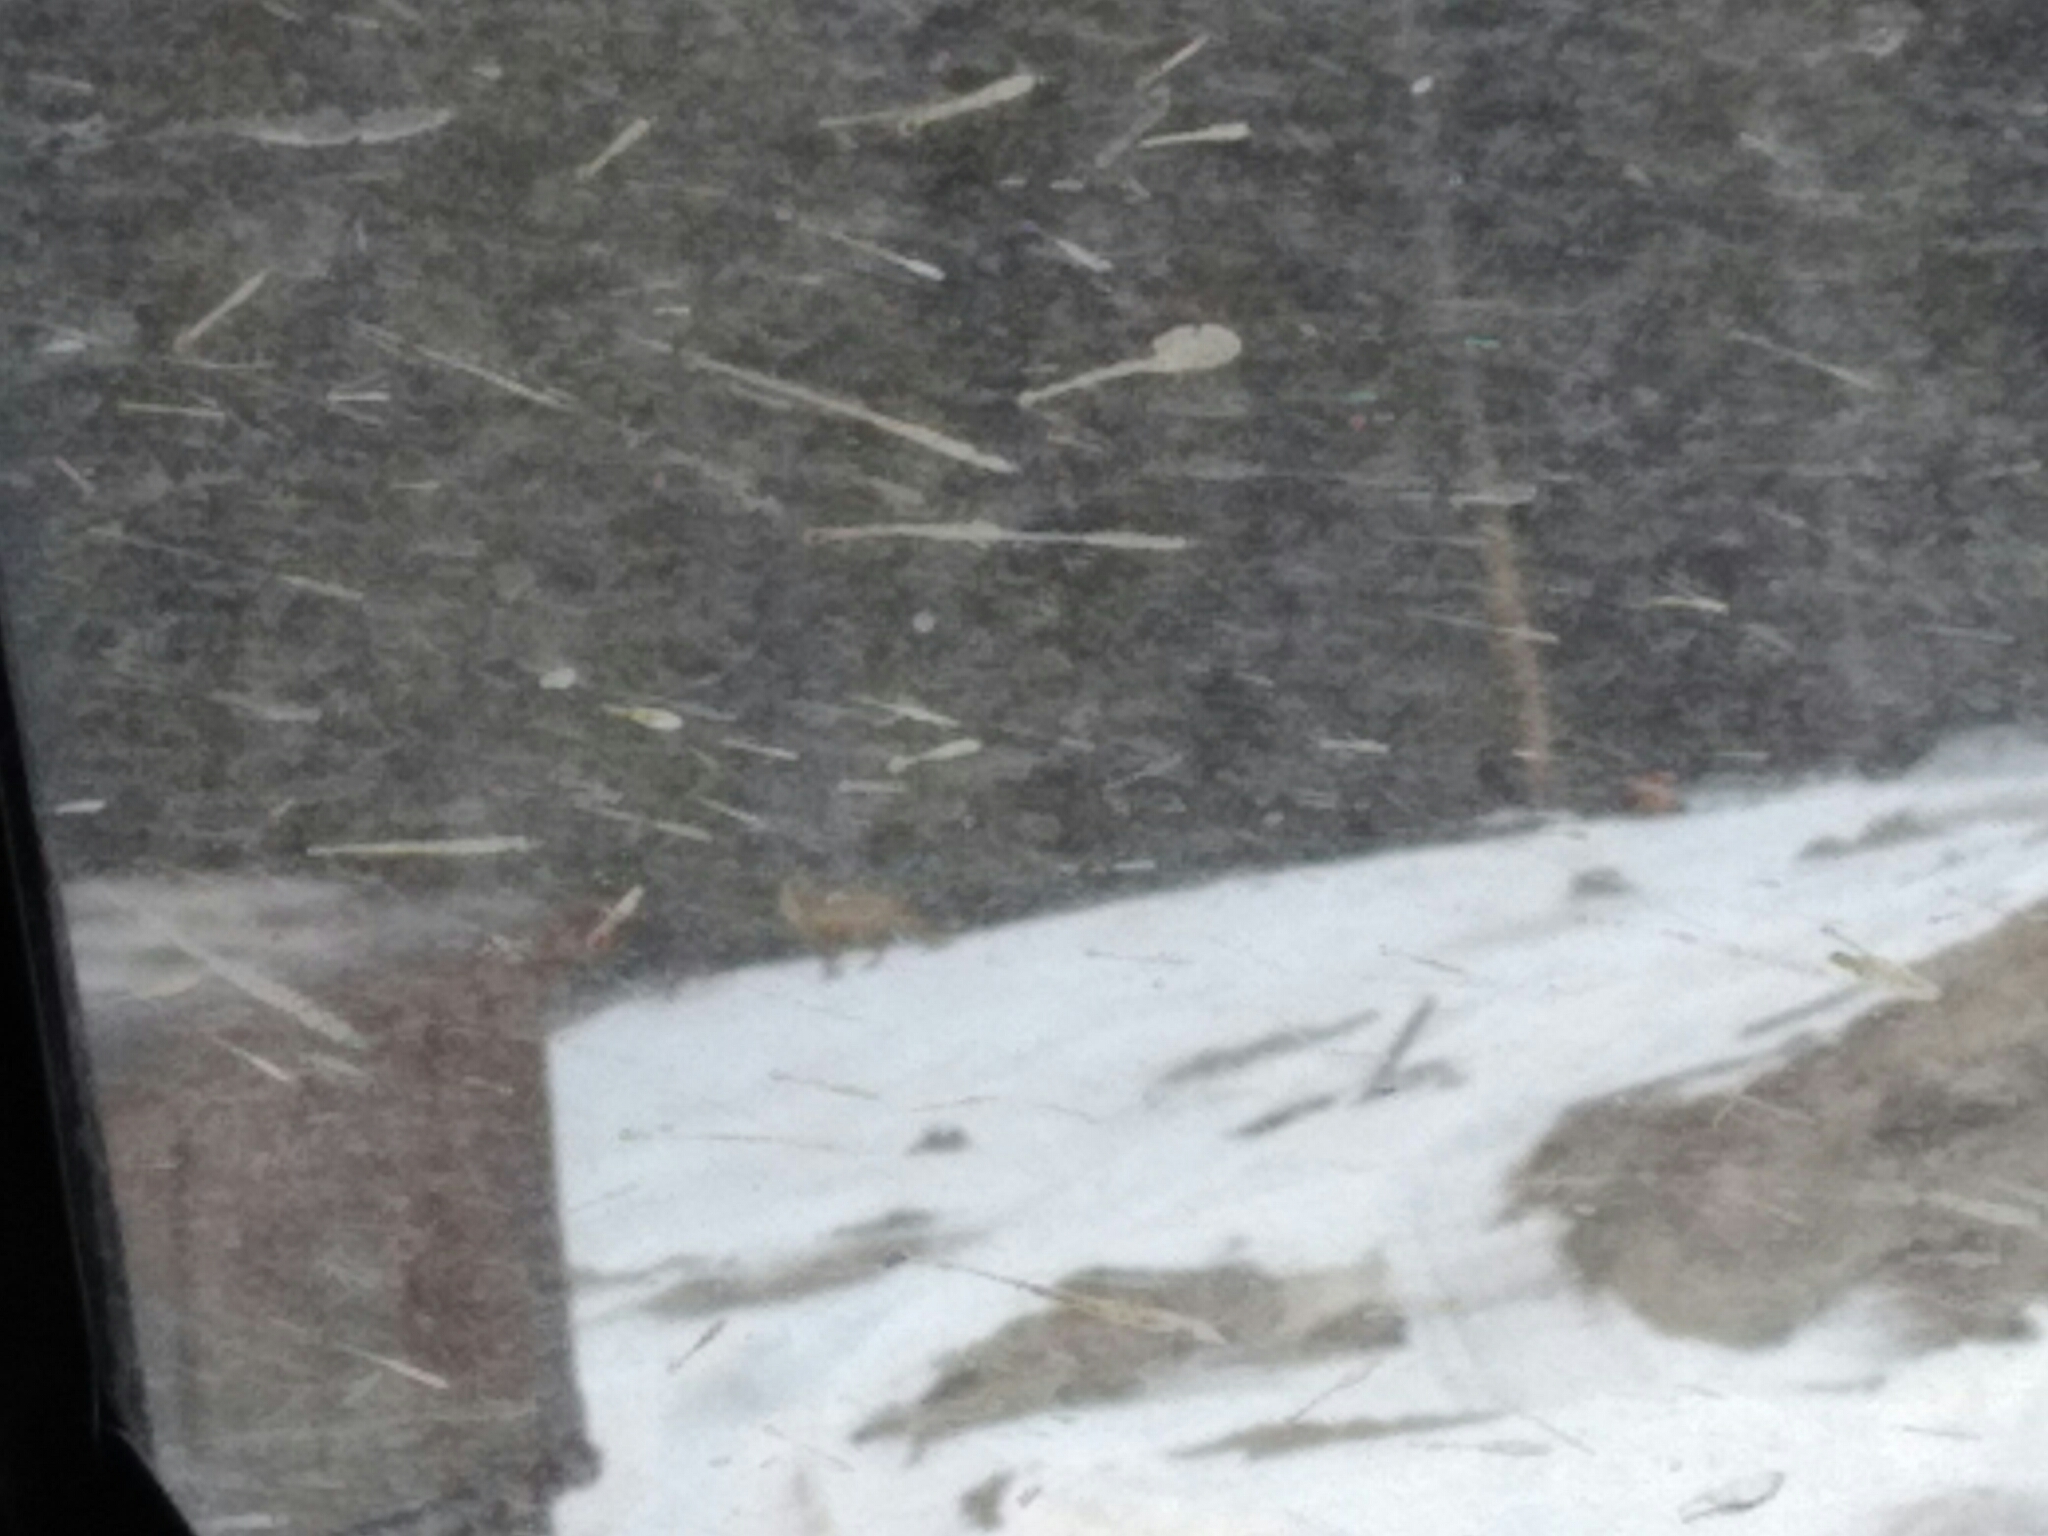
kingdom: Animalia
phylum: Chordata
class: Mammalia
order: Carnivora
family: Canidae
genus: Vulpes
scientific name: Vulpes vulpes
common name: Red fox
